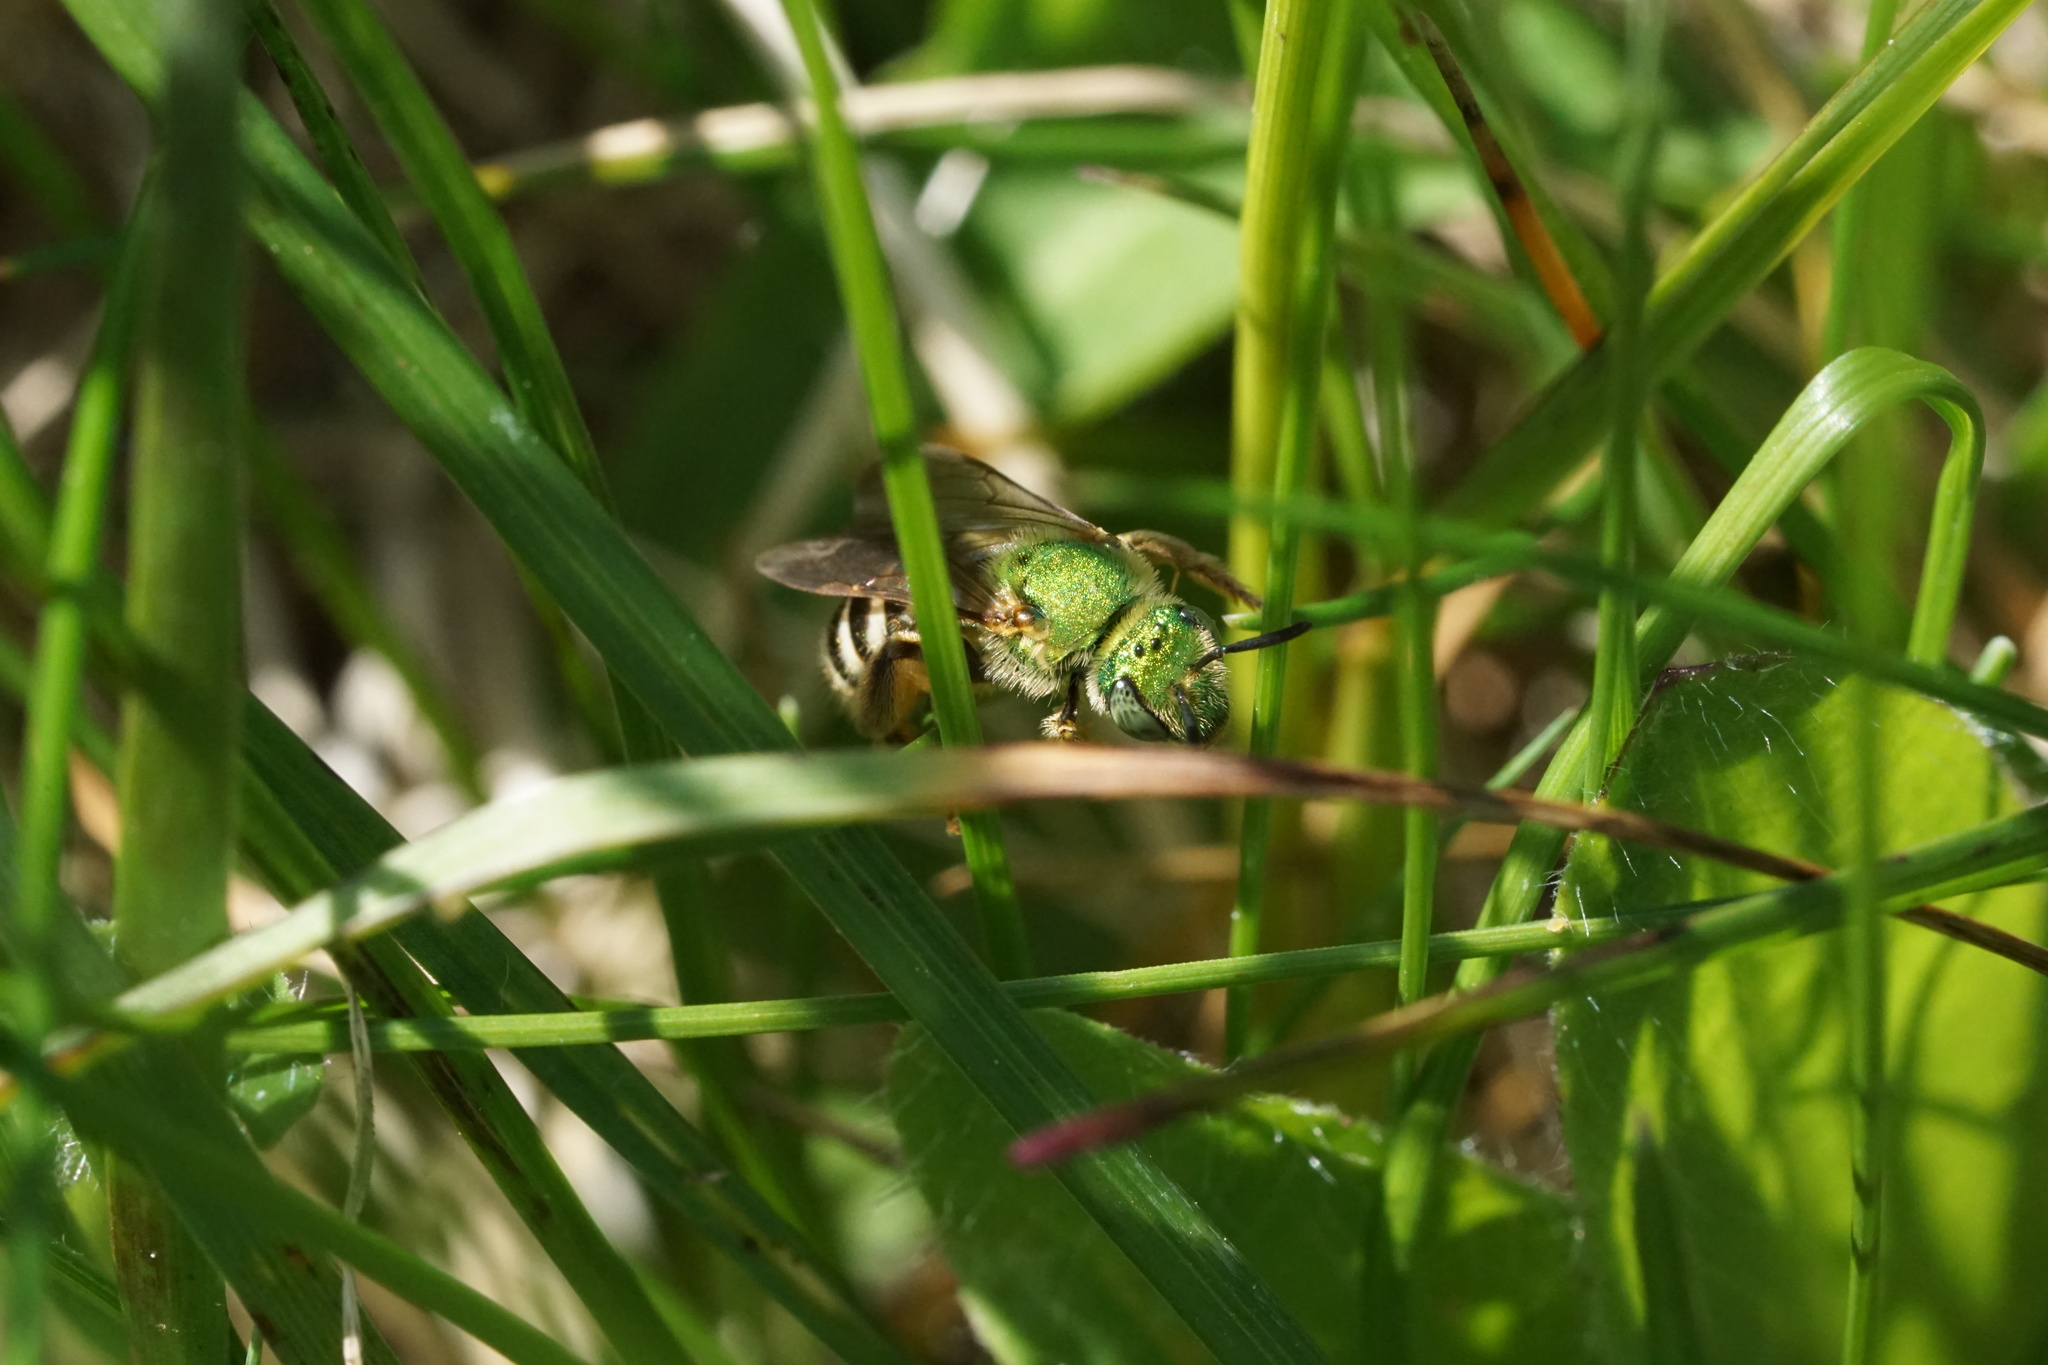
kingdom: Animalia
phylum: Arthropoda
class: Insecta
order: Hymenoptera
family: Halictidae
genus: Agapostemon
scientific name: Agapostemon virescens
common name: Bicolored striped sweat bee
